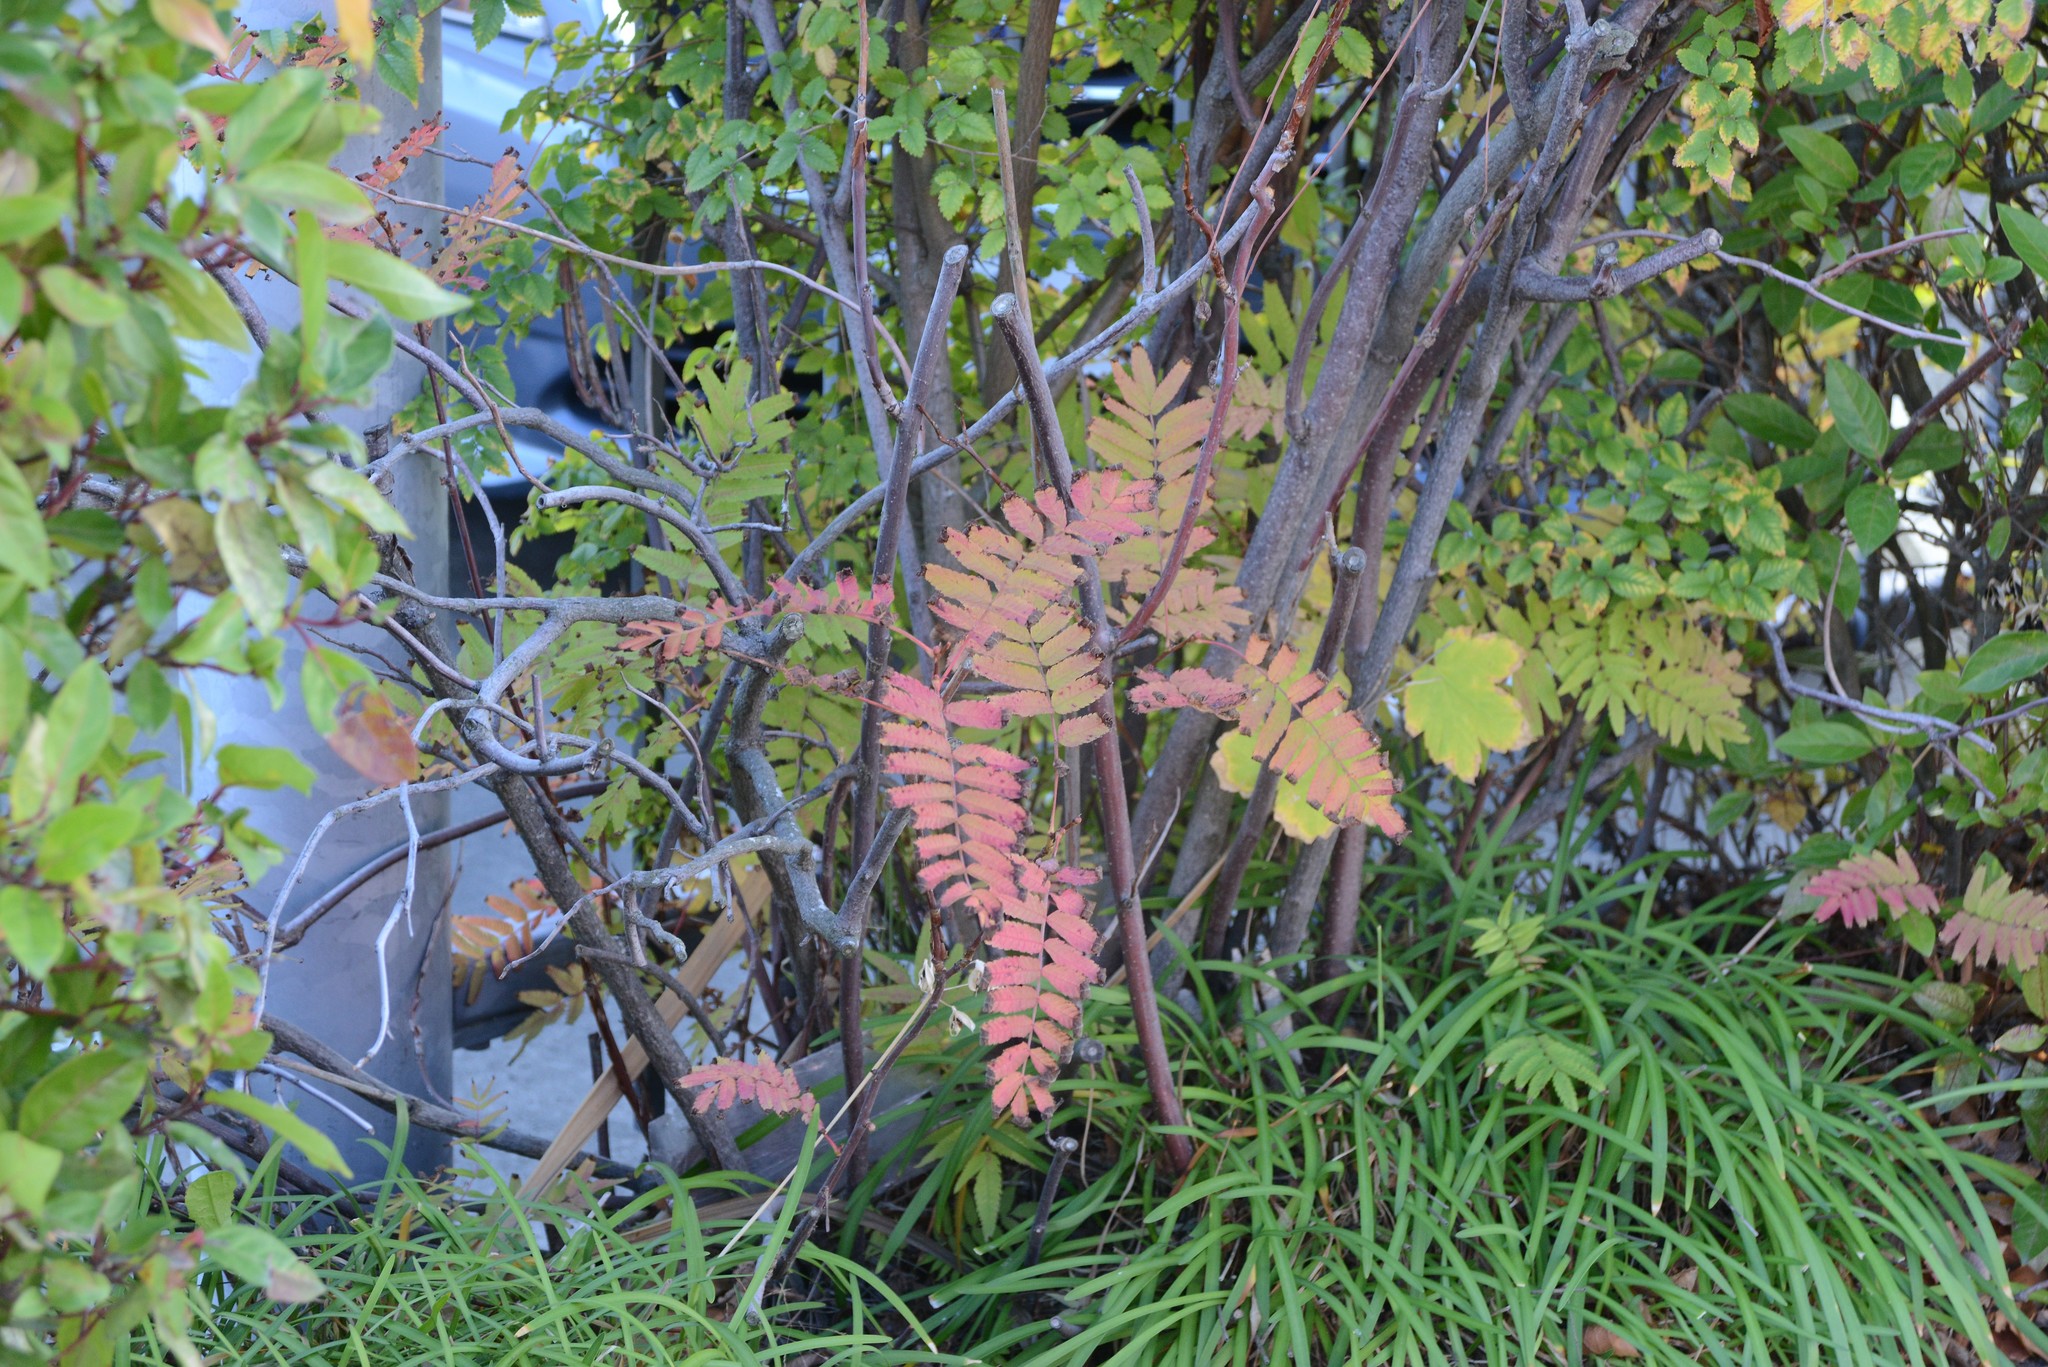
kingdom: Plantae
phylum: Tracheophyta
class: Magnoliopsida
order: Rosales
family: Rosaceae
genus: Sorbus
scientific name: Sorbus aucuparia
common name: Rowan
